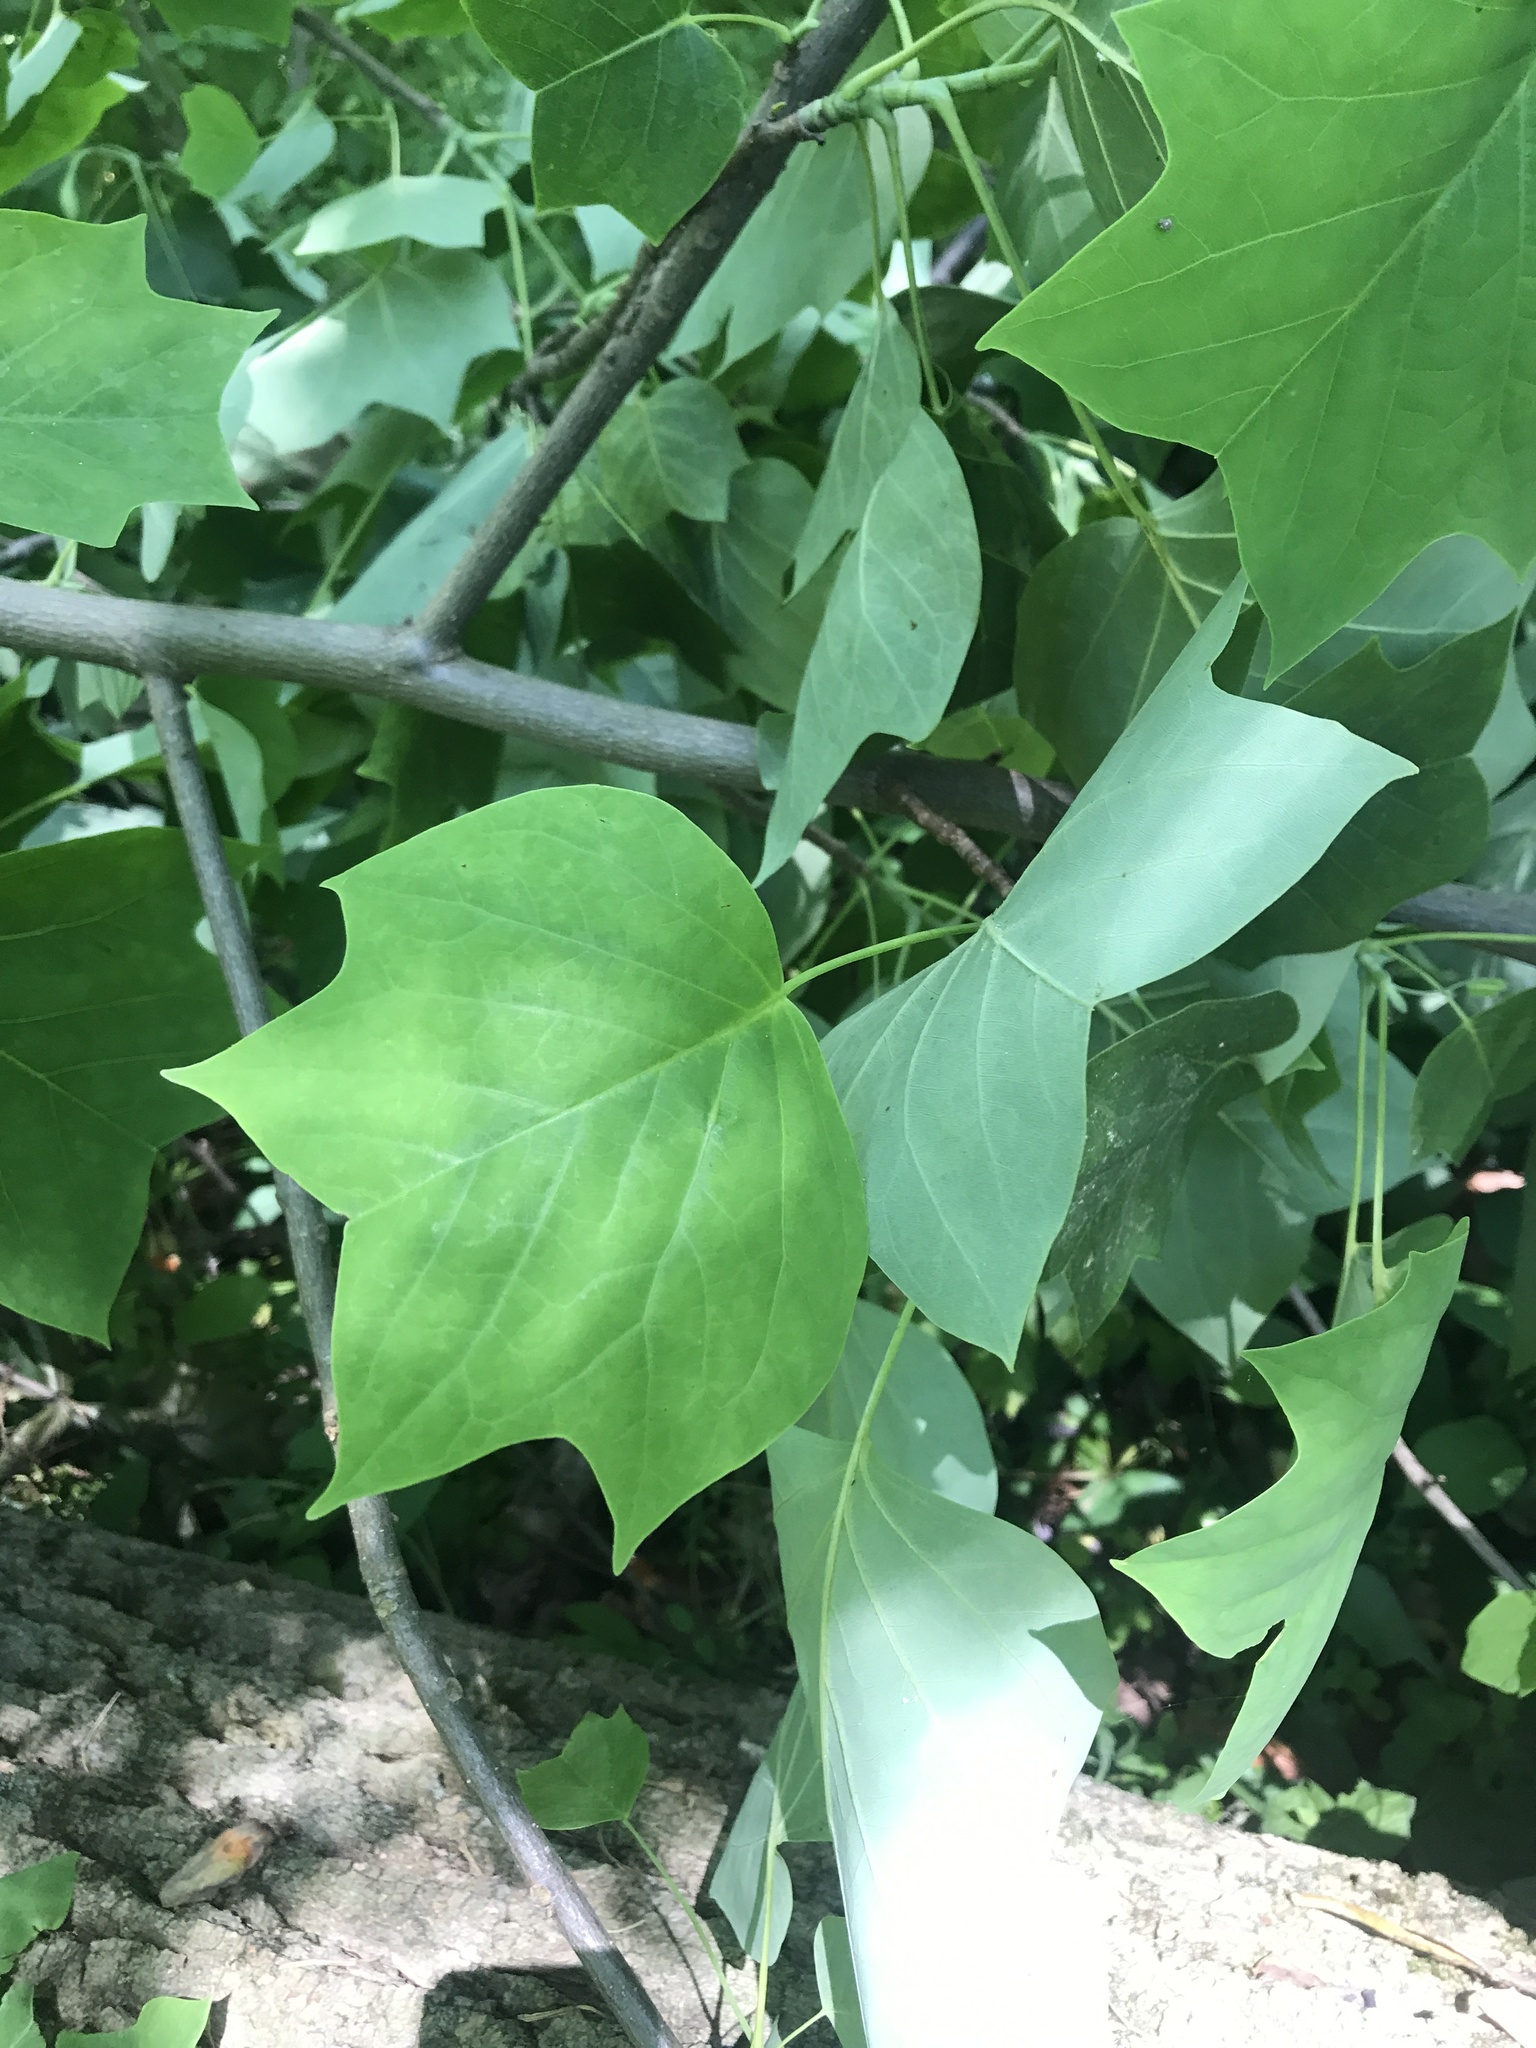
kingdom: Plantae
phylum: Tracheophyta
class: Magnoliopsida
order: Magnoliales
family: Magnoliaceae
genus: Liriodendron
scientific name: Liriodendron tulipifera
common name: Tulip tree
